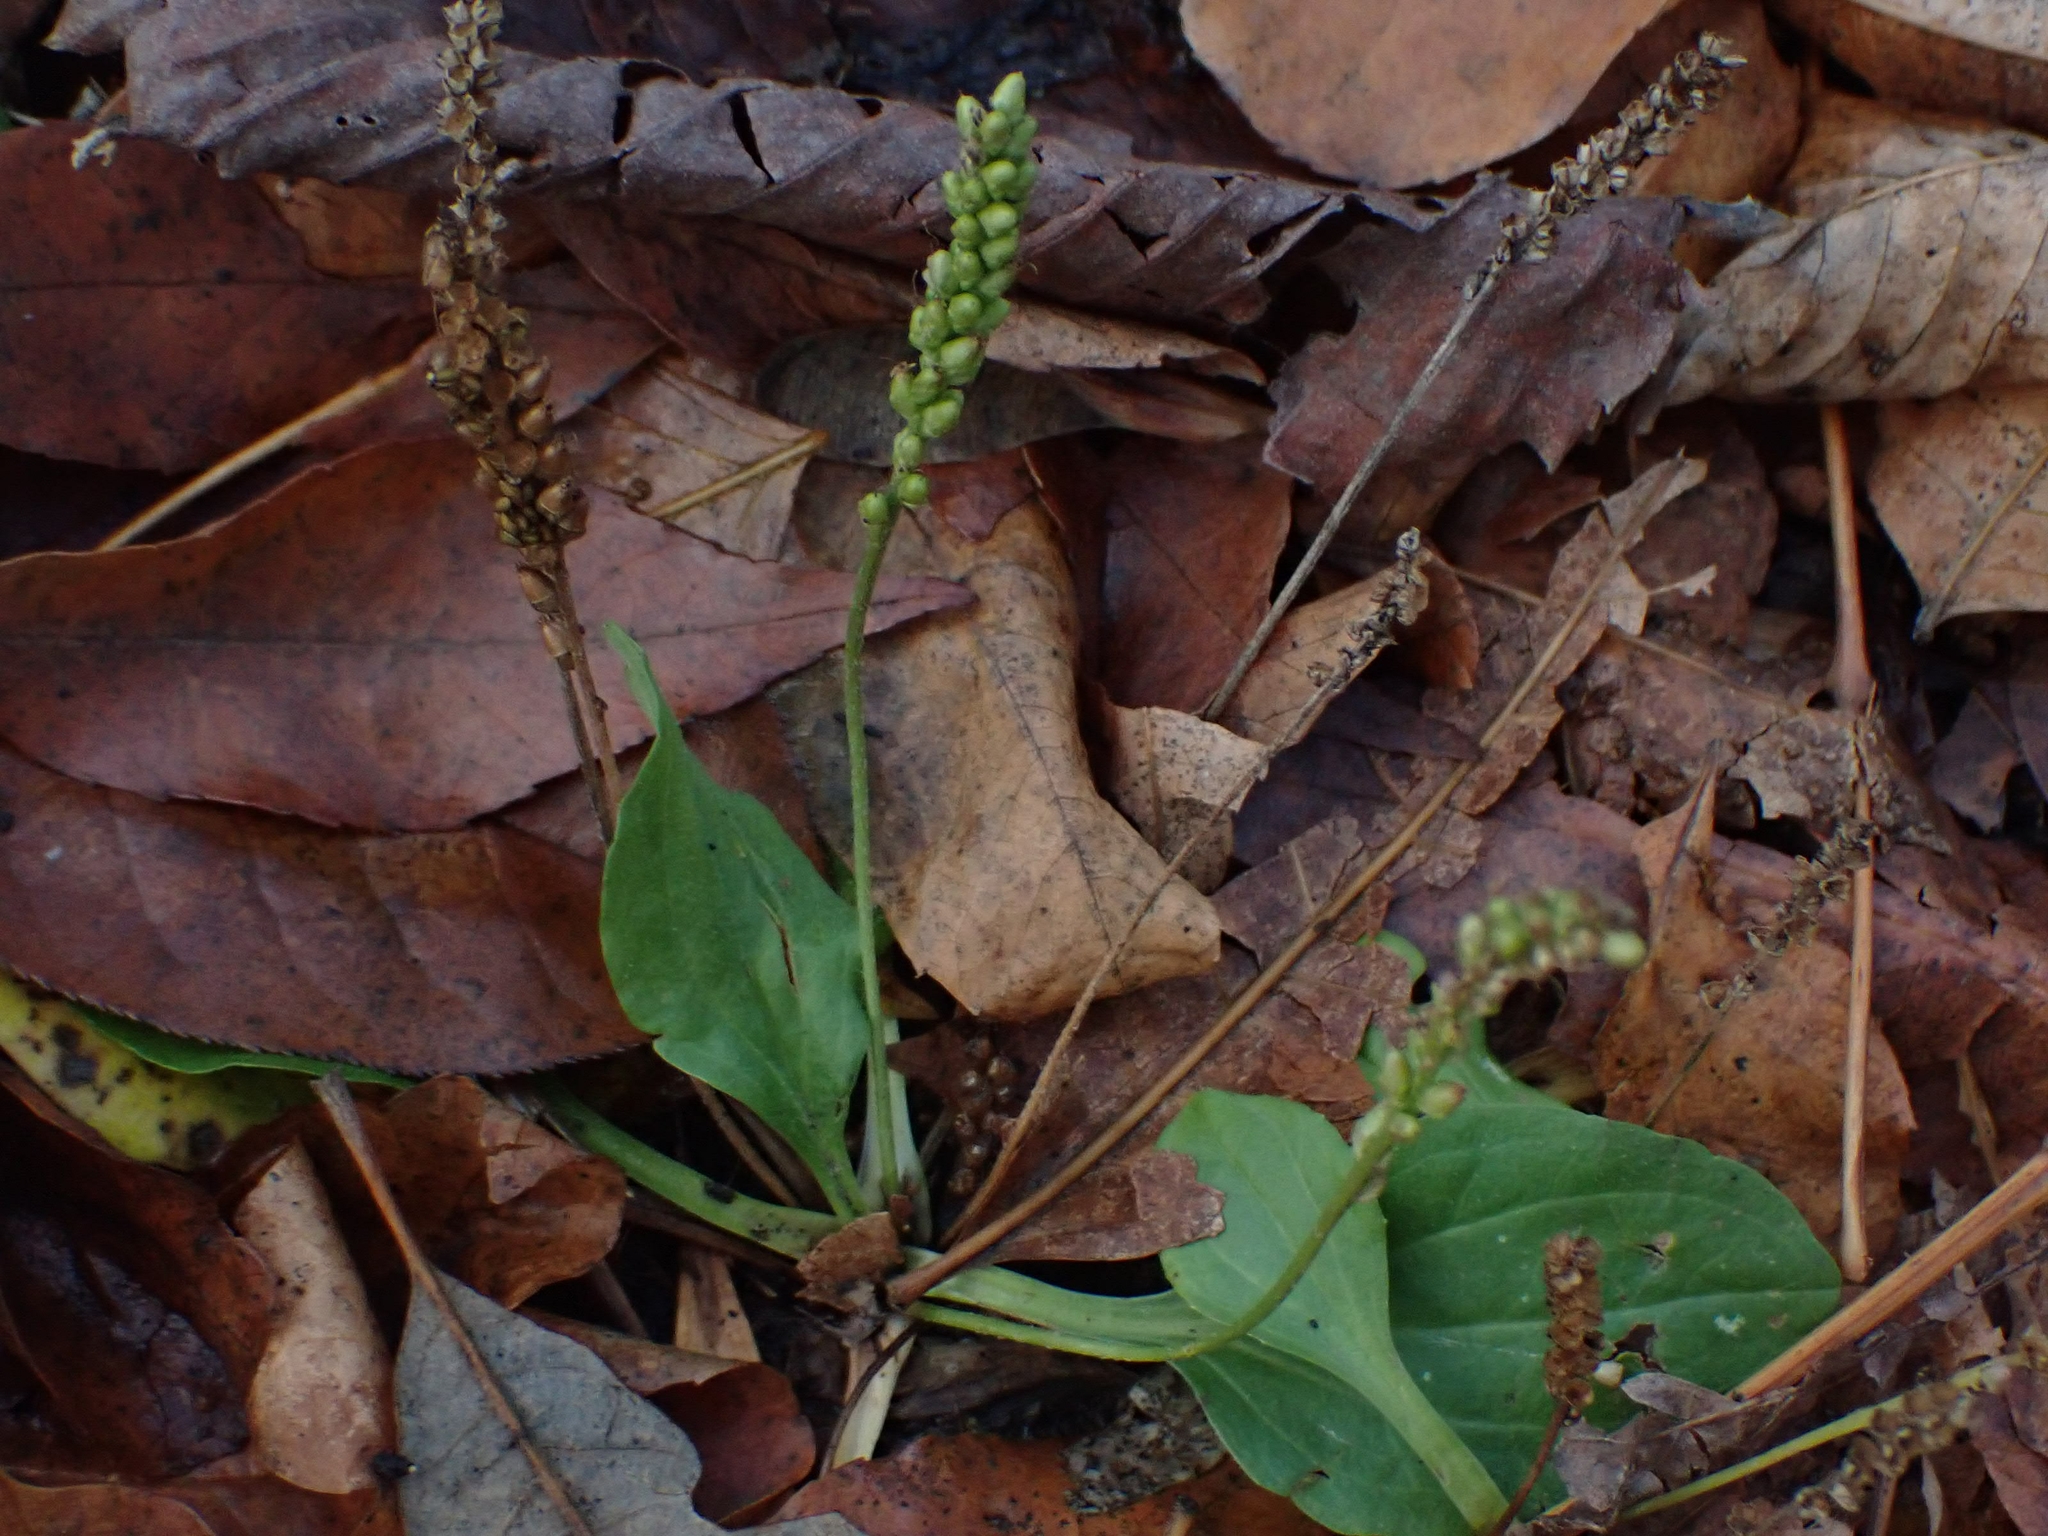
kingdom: Plantae
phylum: Tracheophyta
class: Magnoliopsida
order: Lamiales
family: Plantaginaceae
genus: Plantago
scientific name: Plantago major
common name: Common plantain
